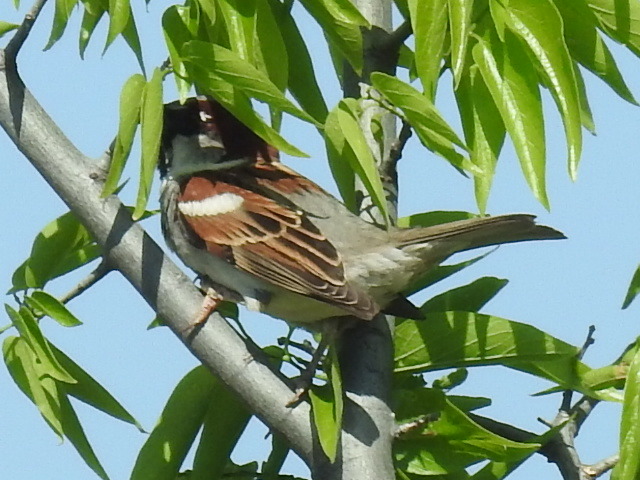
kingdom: Animalia
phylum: Chordata
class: Aves
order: Passeriformes
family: Passeridae
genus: Passer
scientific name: Passer domesticus
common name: House sparrow
